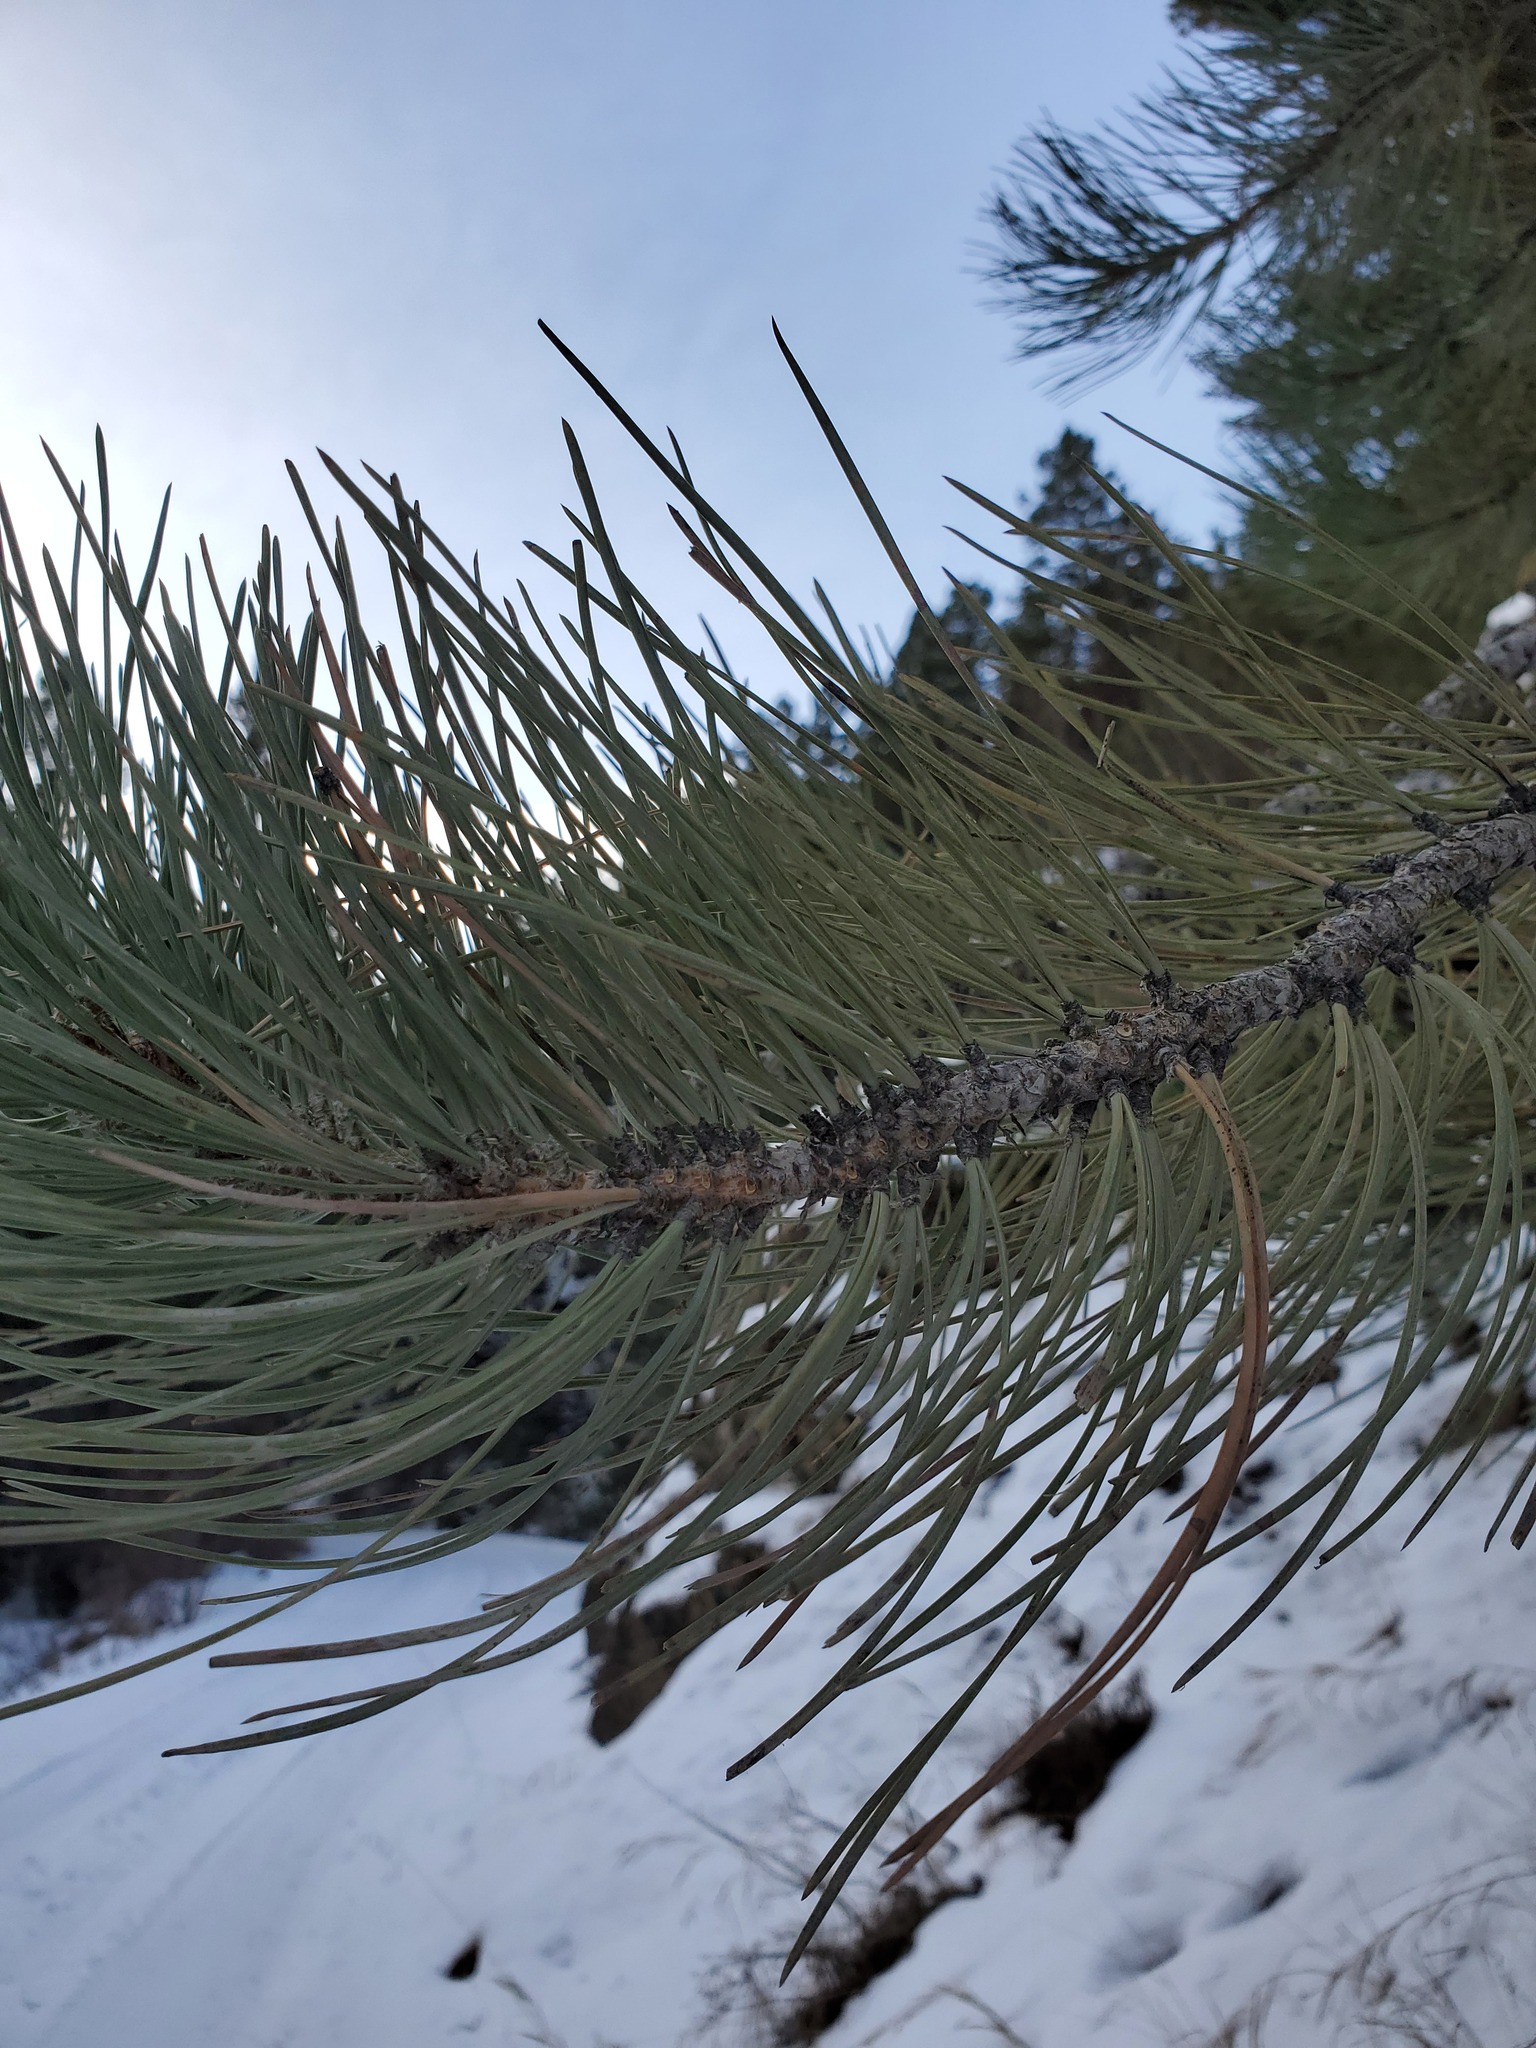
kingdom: Plantae
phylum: Tracheophyta
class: Pinopsida
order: Pinales
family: Pinaceae
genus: Pinus
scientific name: Pinus ponderosa
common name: Western yellow-pine
